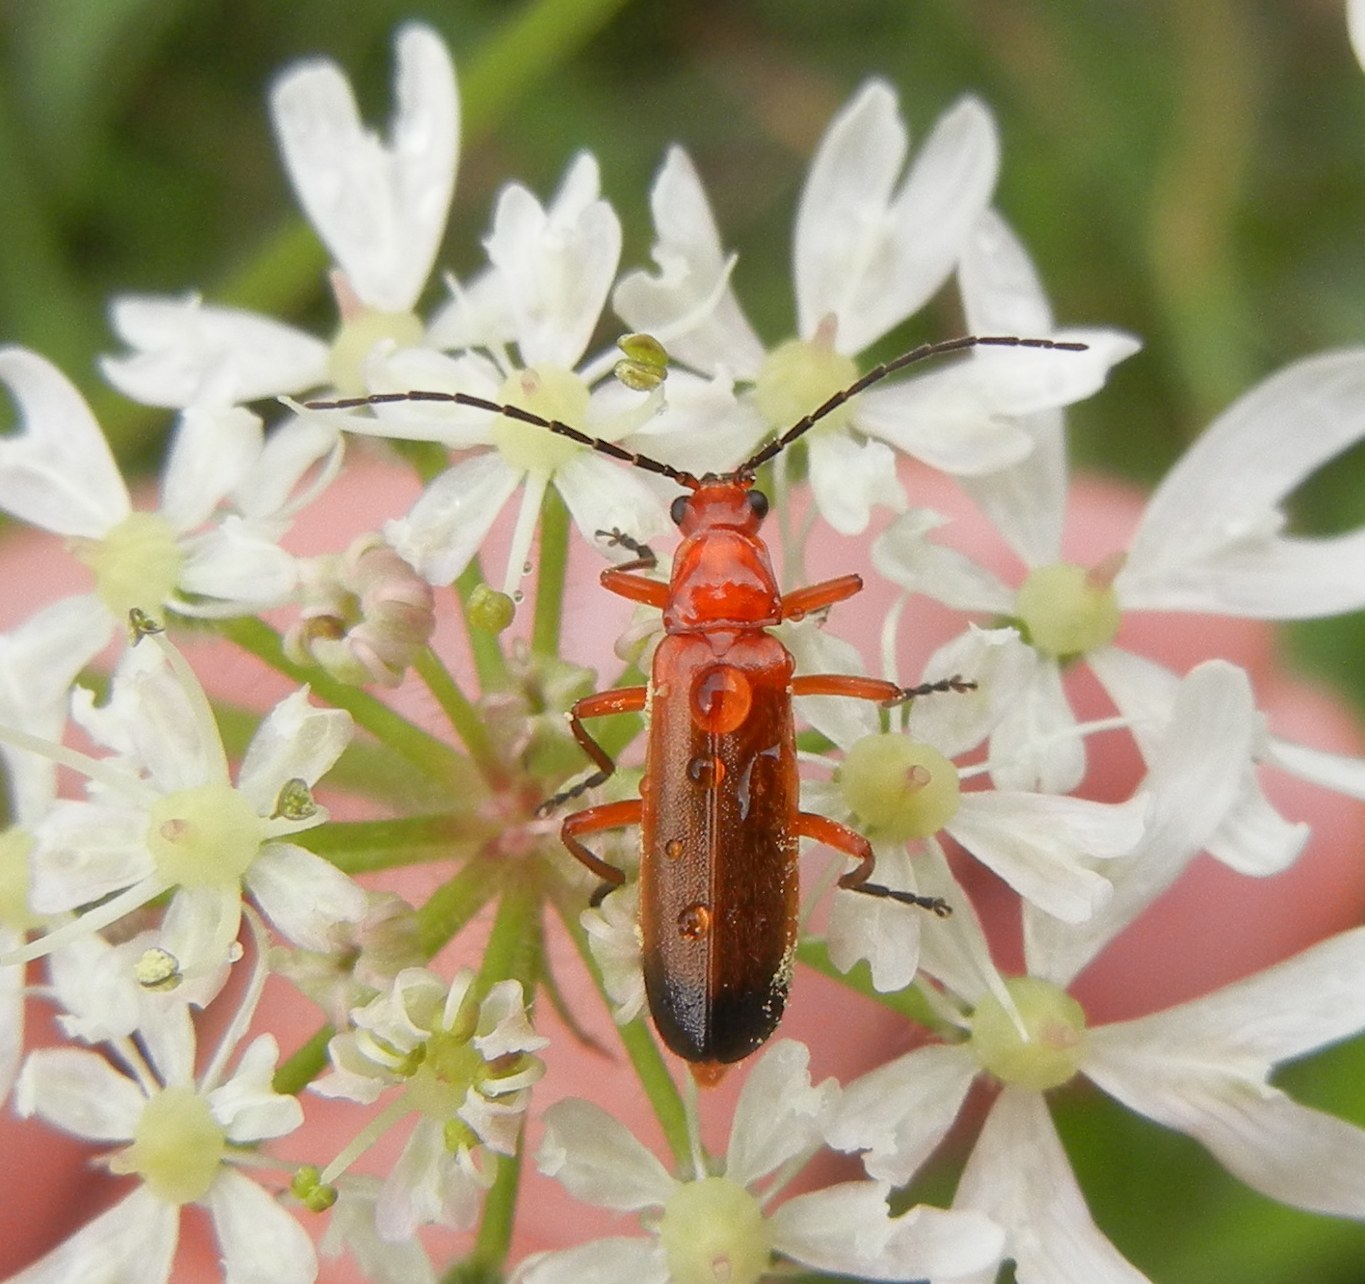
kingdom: Animalia
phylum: Arthropoda
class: Insecta
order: Coleoptera
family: Cantharidae
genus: Rhagonycha
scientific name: Rhagonycha fulva
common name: Common red soldier beetle
